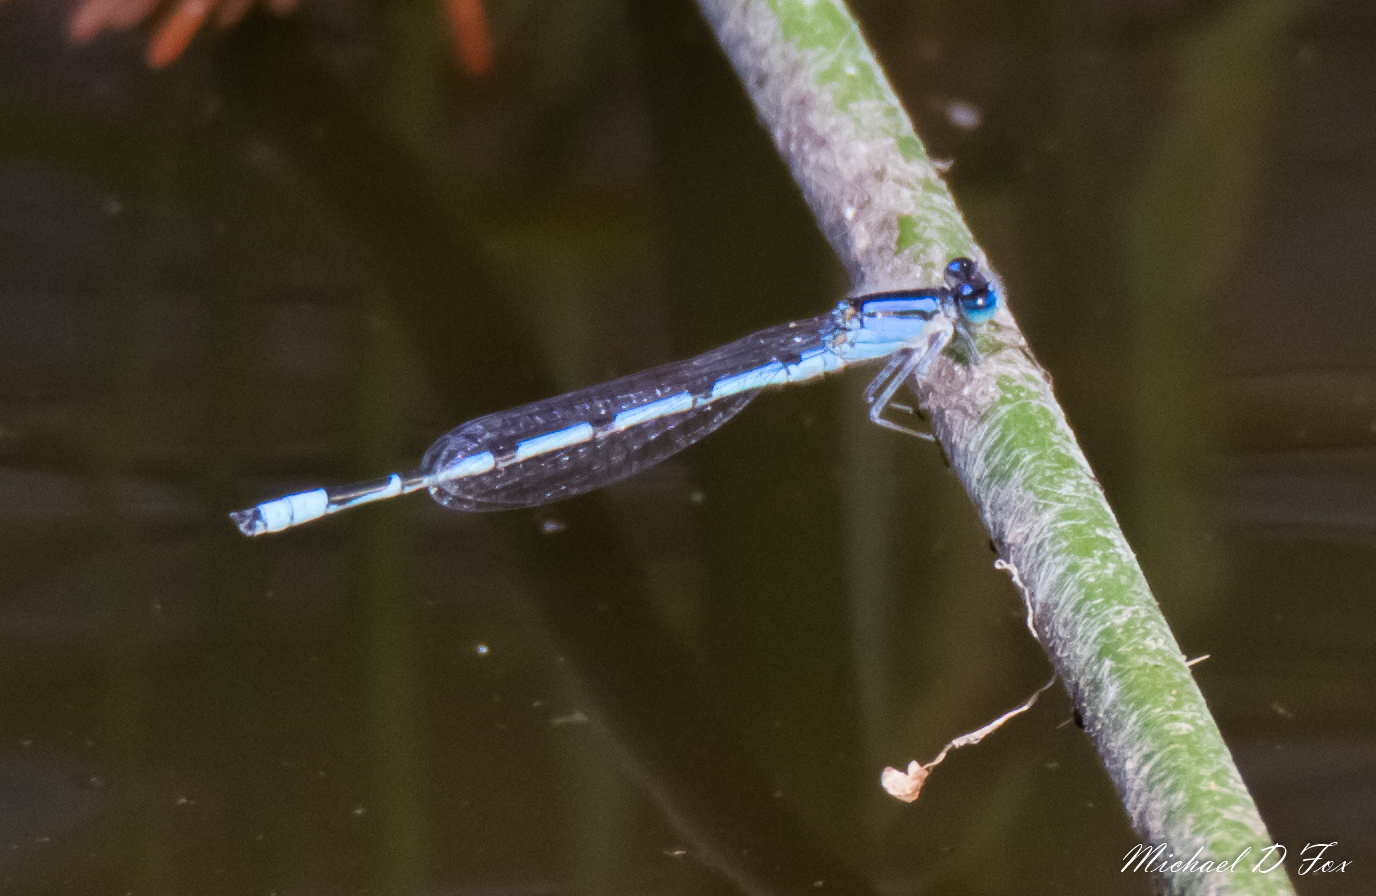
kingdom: Animalia
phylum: Arthropoda
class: Insecta
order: Odonata
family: Coenagrionidae
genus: Enallagma
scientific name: Enallagma civile
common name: Damselfly
